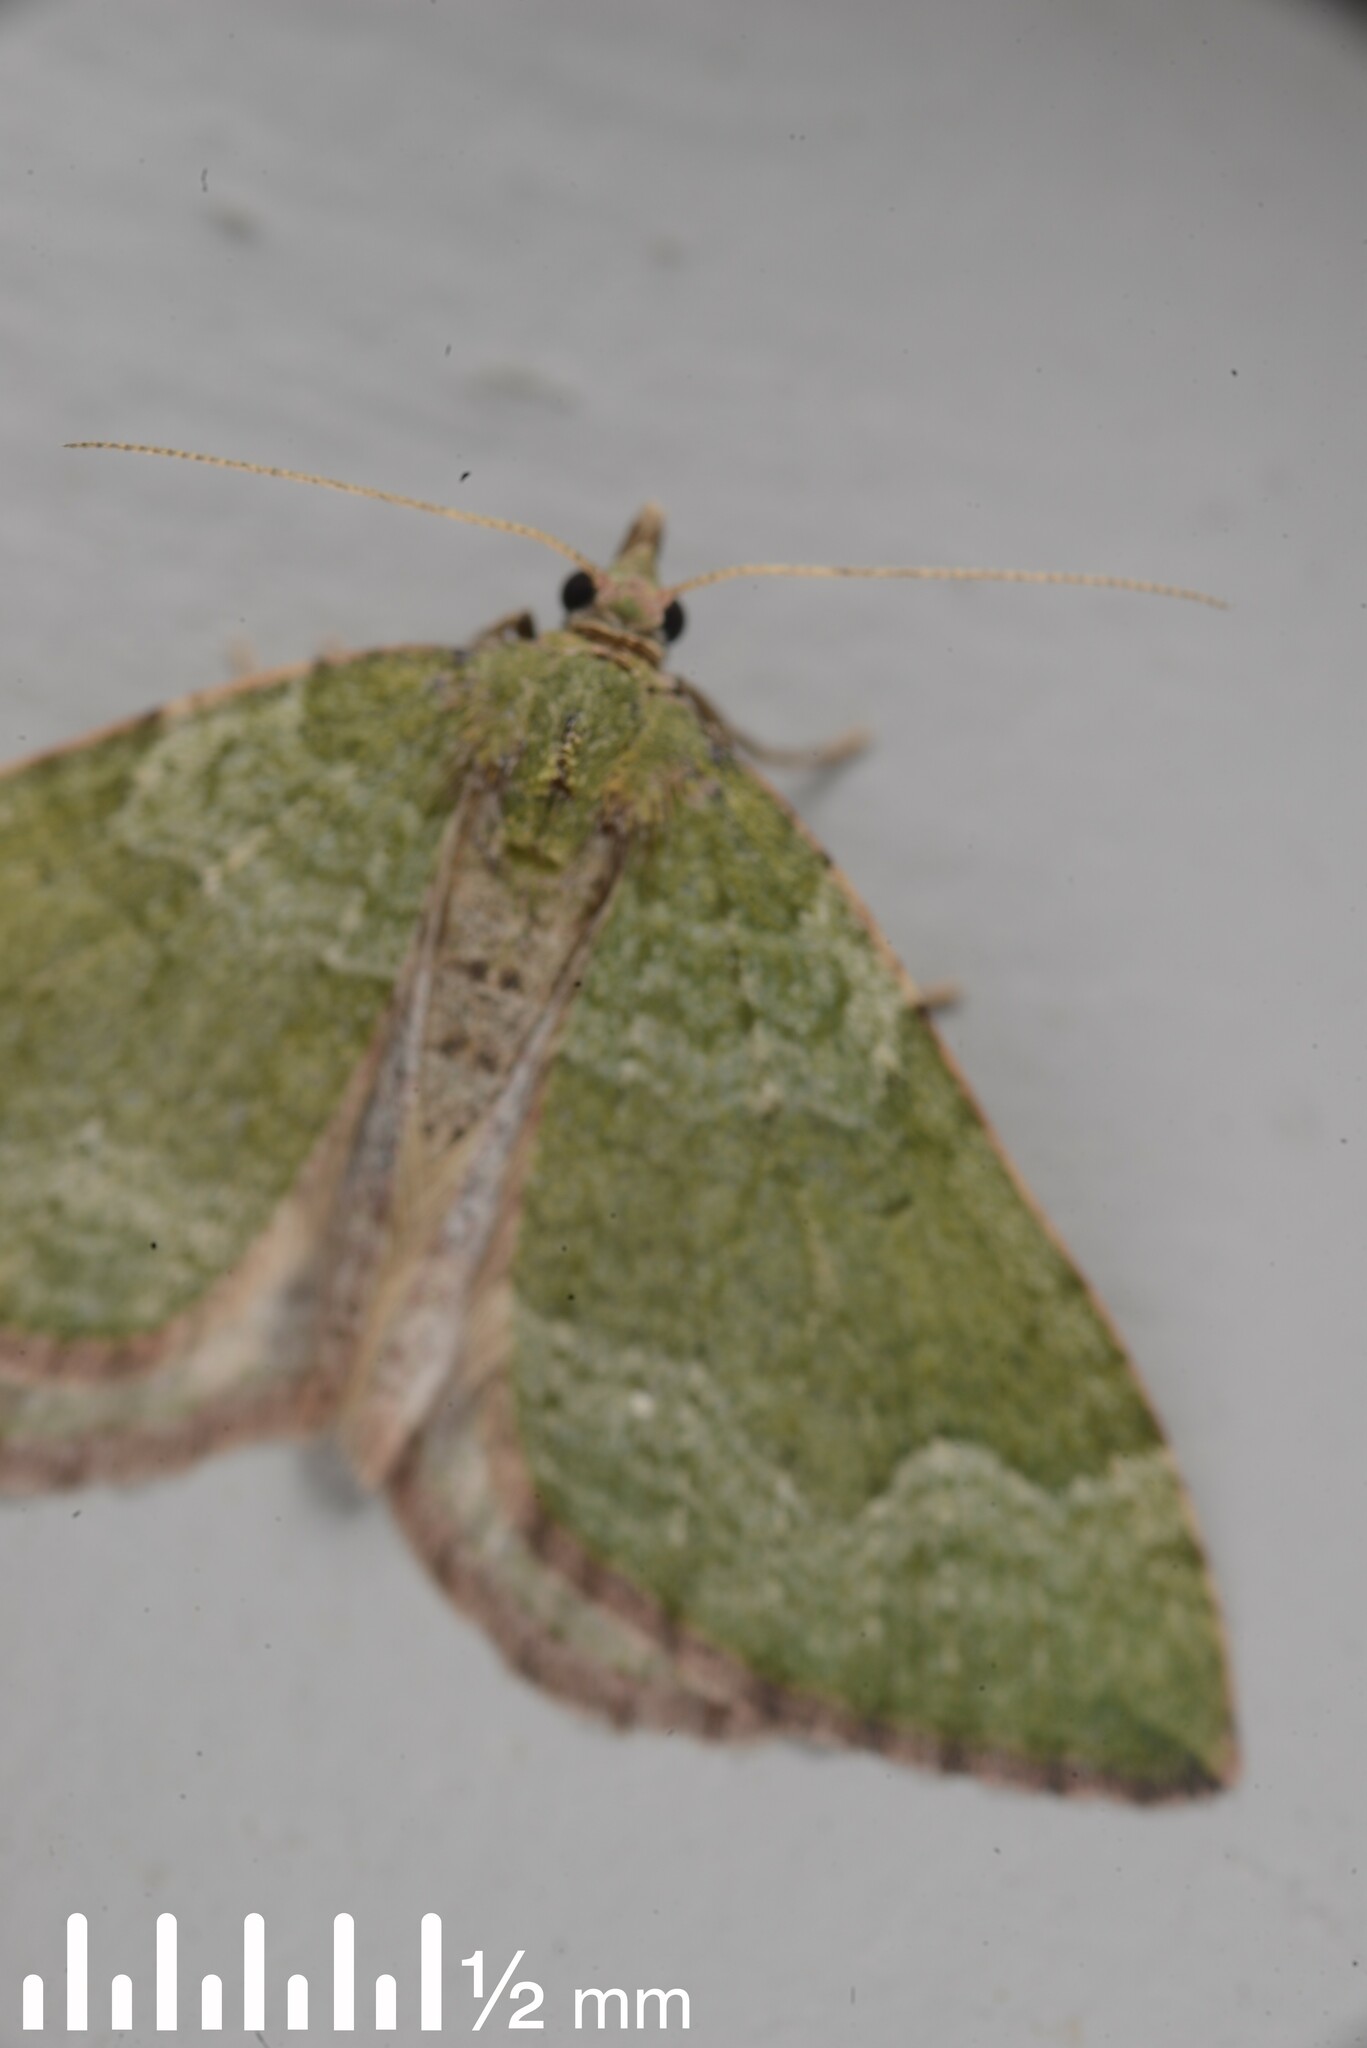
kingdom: Animalia
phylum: Arthropoda
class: Insecta
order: Lepidoptera
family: Geometridae
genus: Epyaxa
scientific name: Epyaxa rosearia
